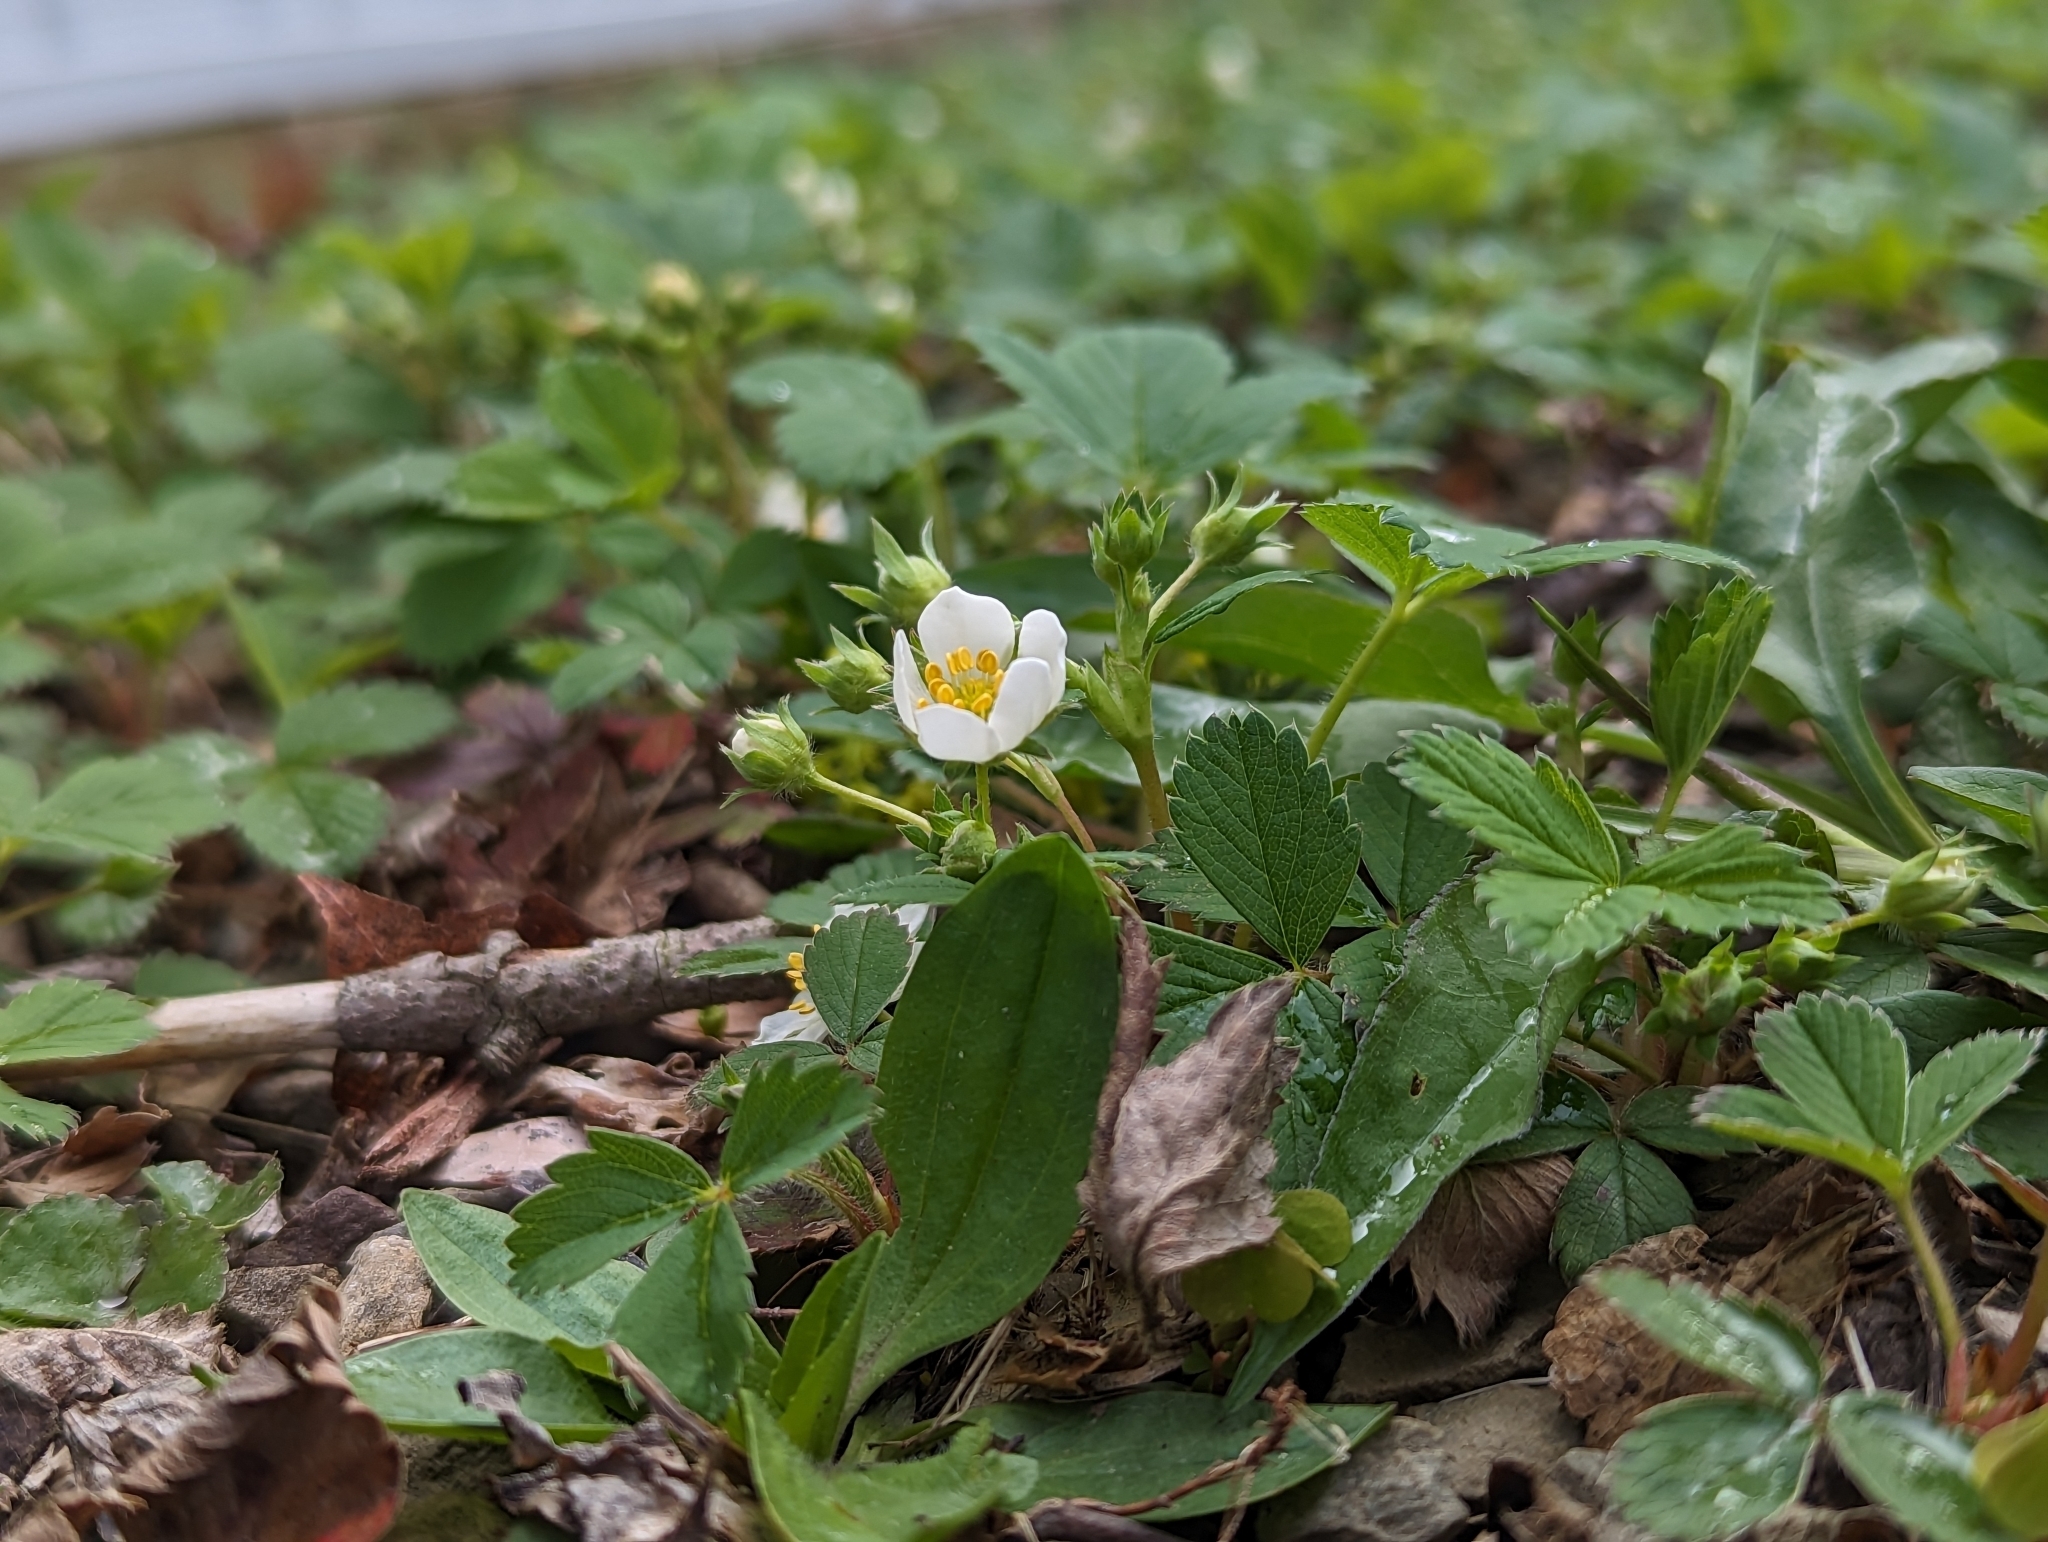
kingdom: Plantae
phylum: Tracheophyta
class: Magnoliopsida
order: Rosales
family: Rosaceae
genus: Fragaria
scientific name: Fragaria virginiana
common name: Thickleaved wild strawberry
